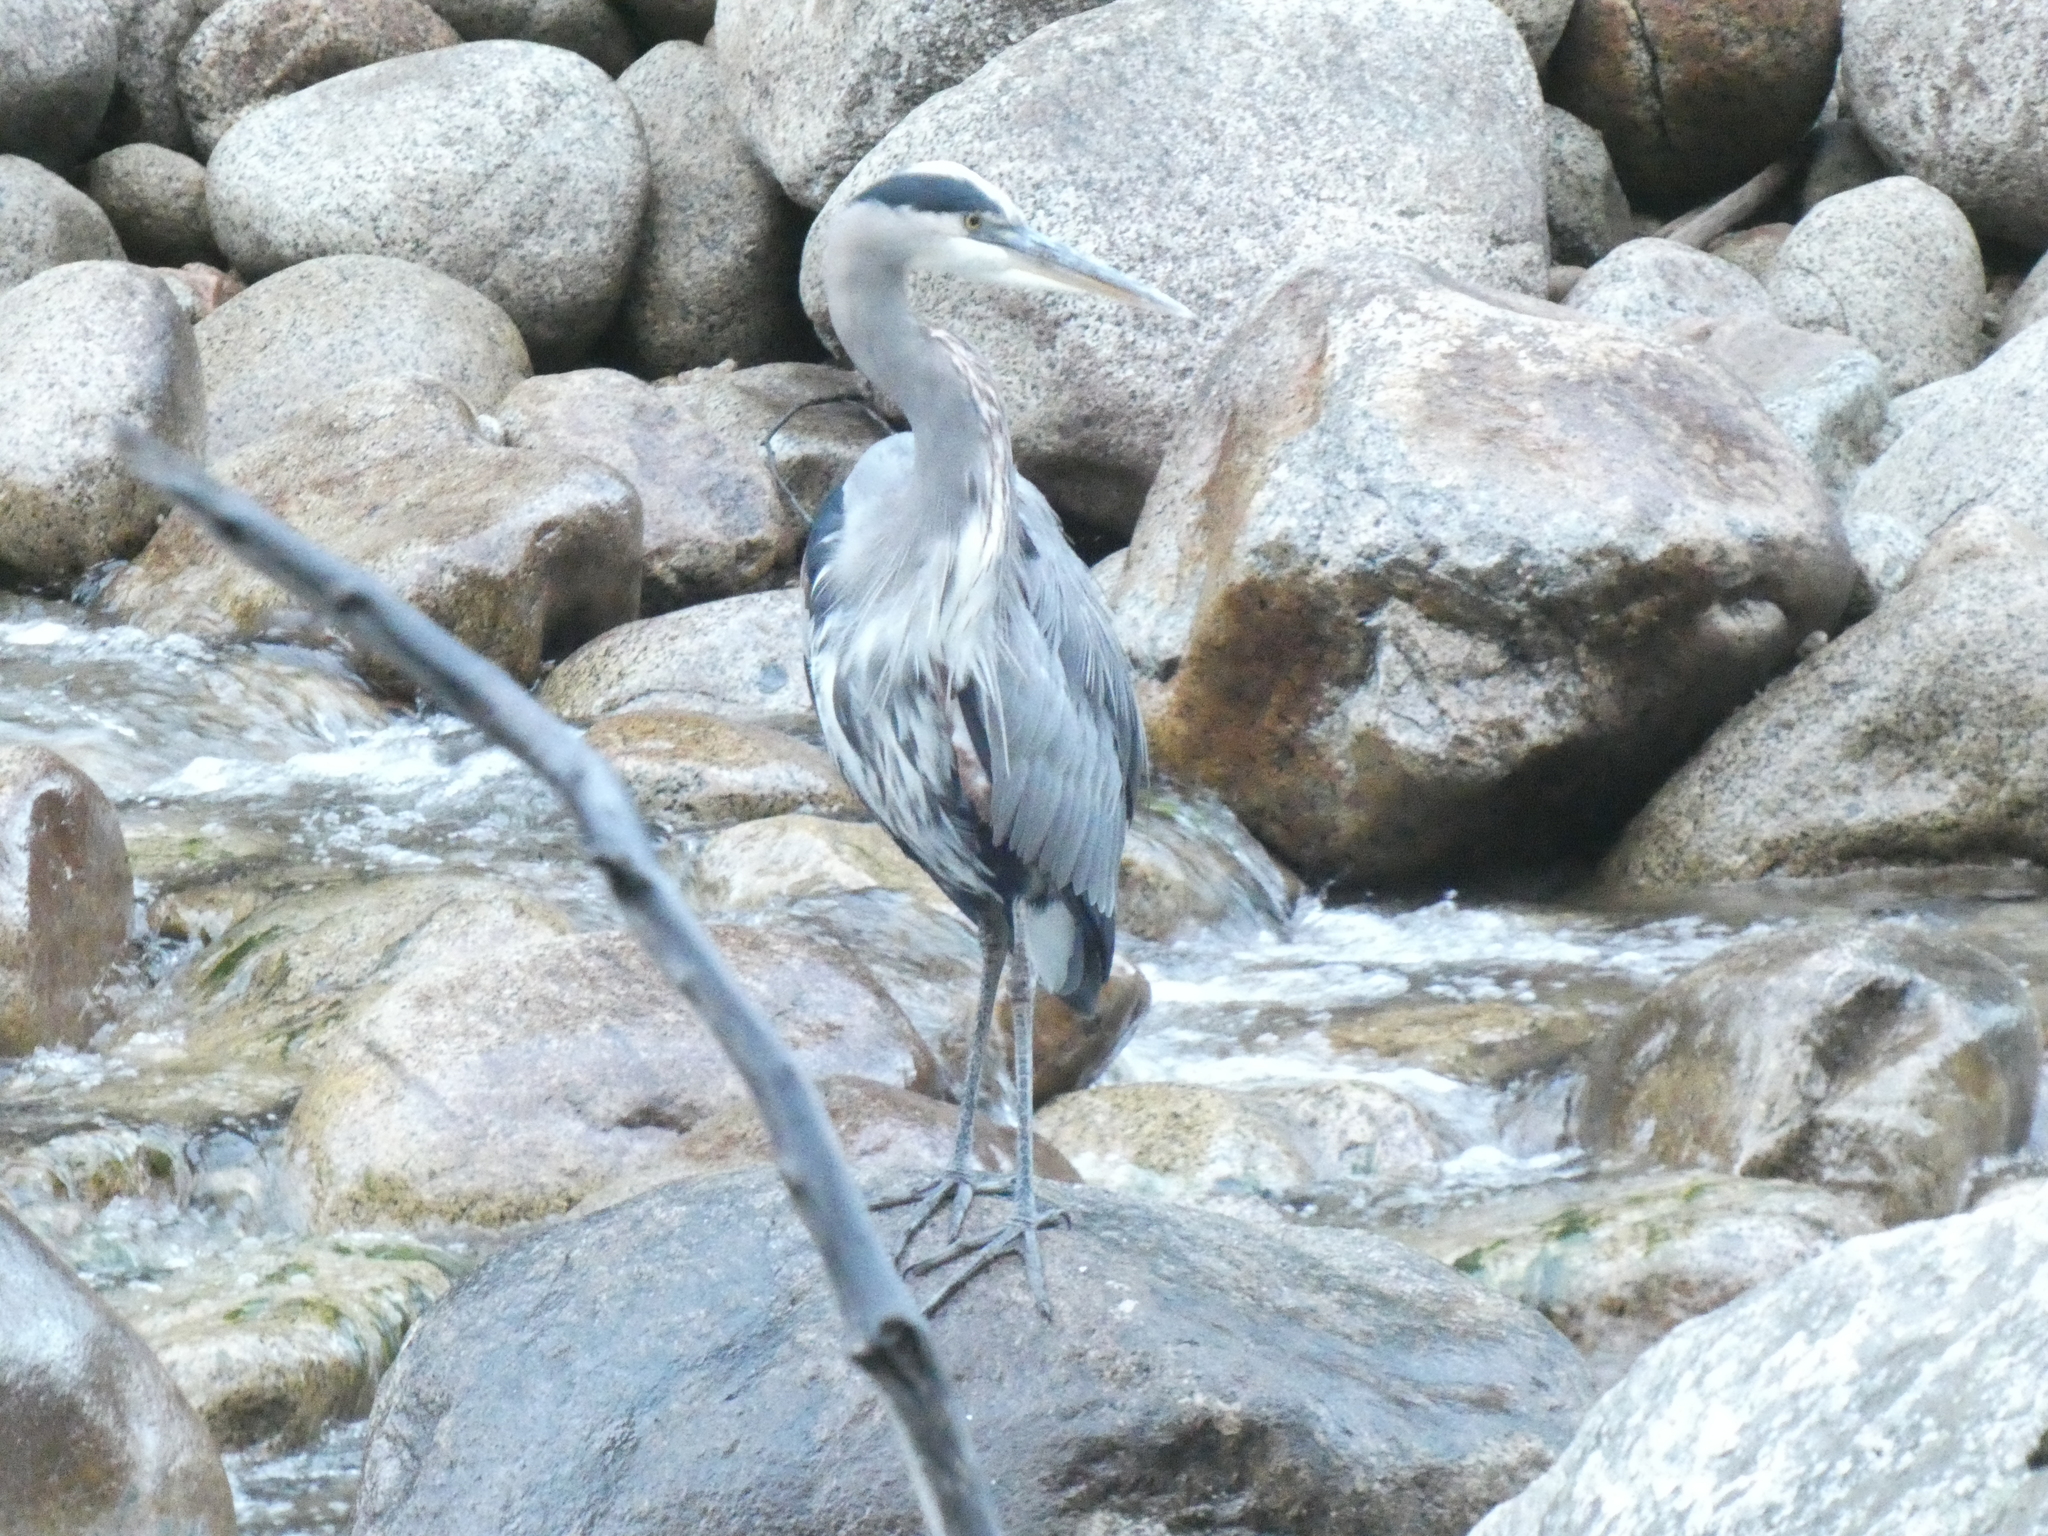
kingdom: Animalia
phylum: Chordata
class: Aves
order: Pelecaniformes
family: Ardeidae
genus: Ardea
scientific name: Ardea herodias
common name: Great blue heron
